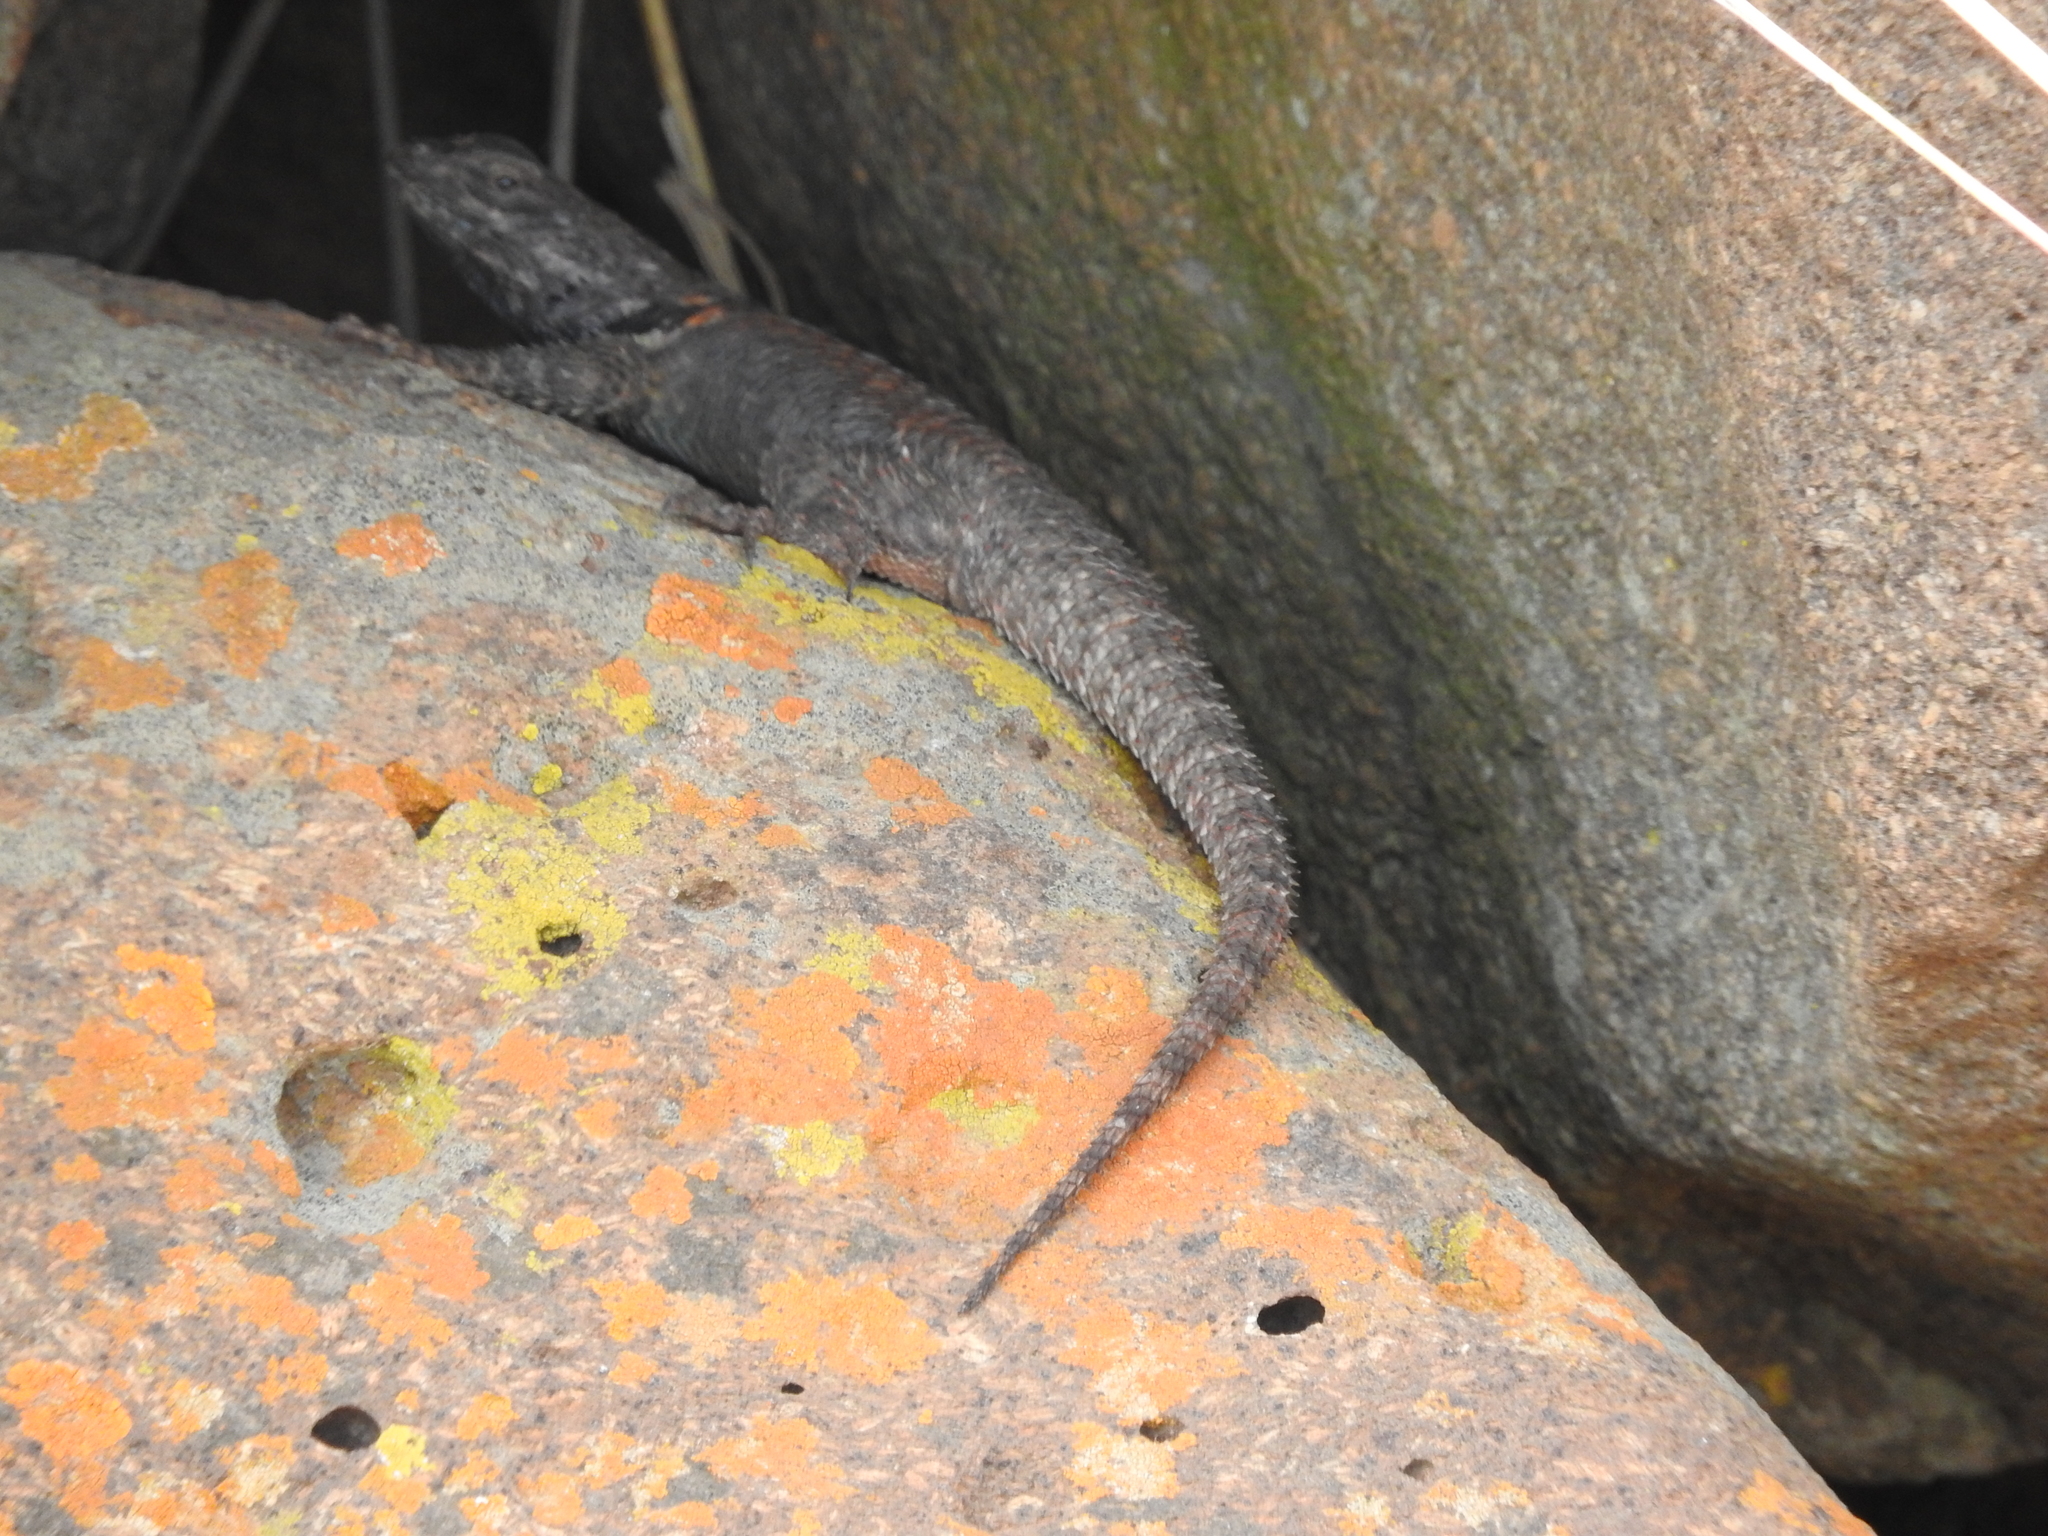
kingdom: Animalia
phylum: Chordata
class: Squamata
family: Phrynosomatidae
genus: Sceloporus
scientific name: Sceloporus torquatus
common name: Central plateau torquate lizard [melanogaster]
